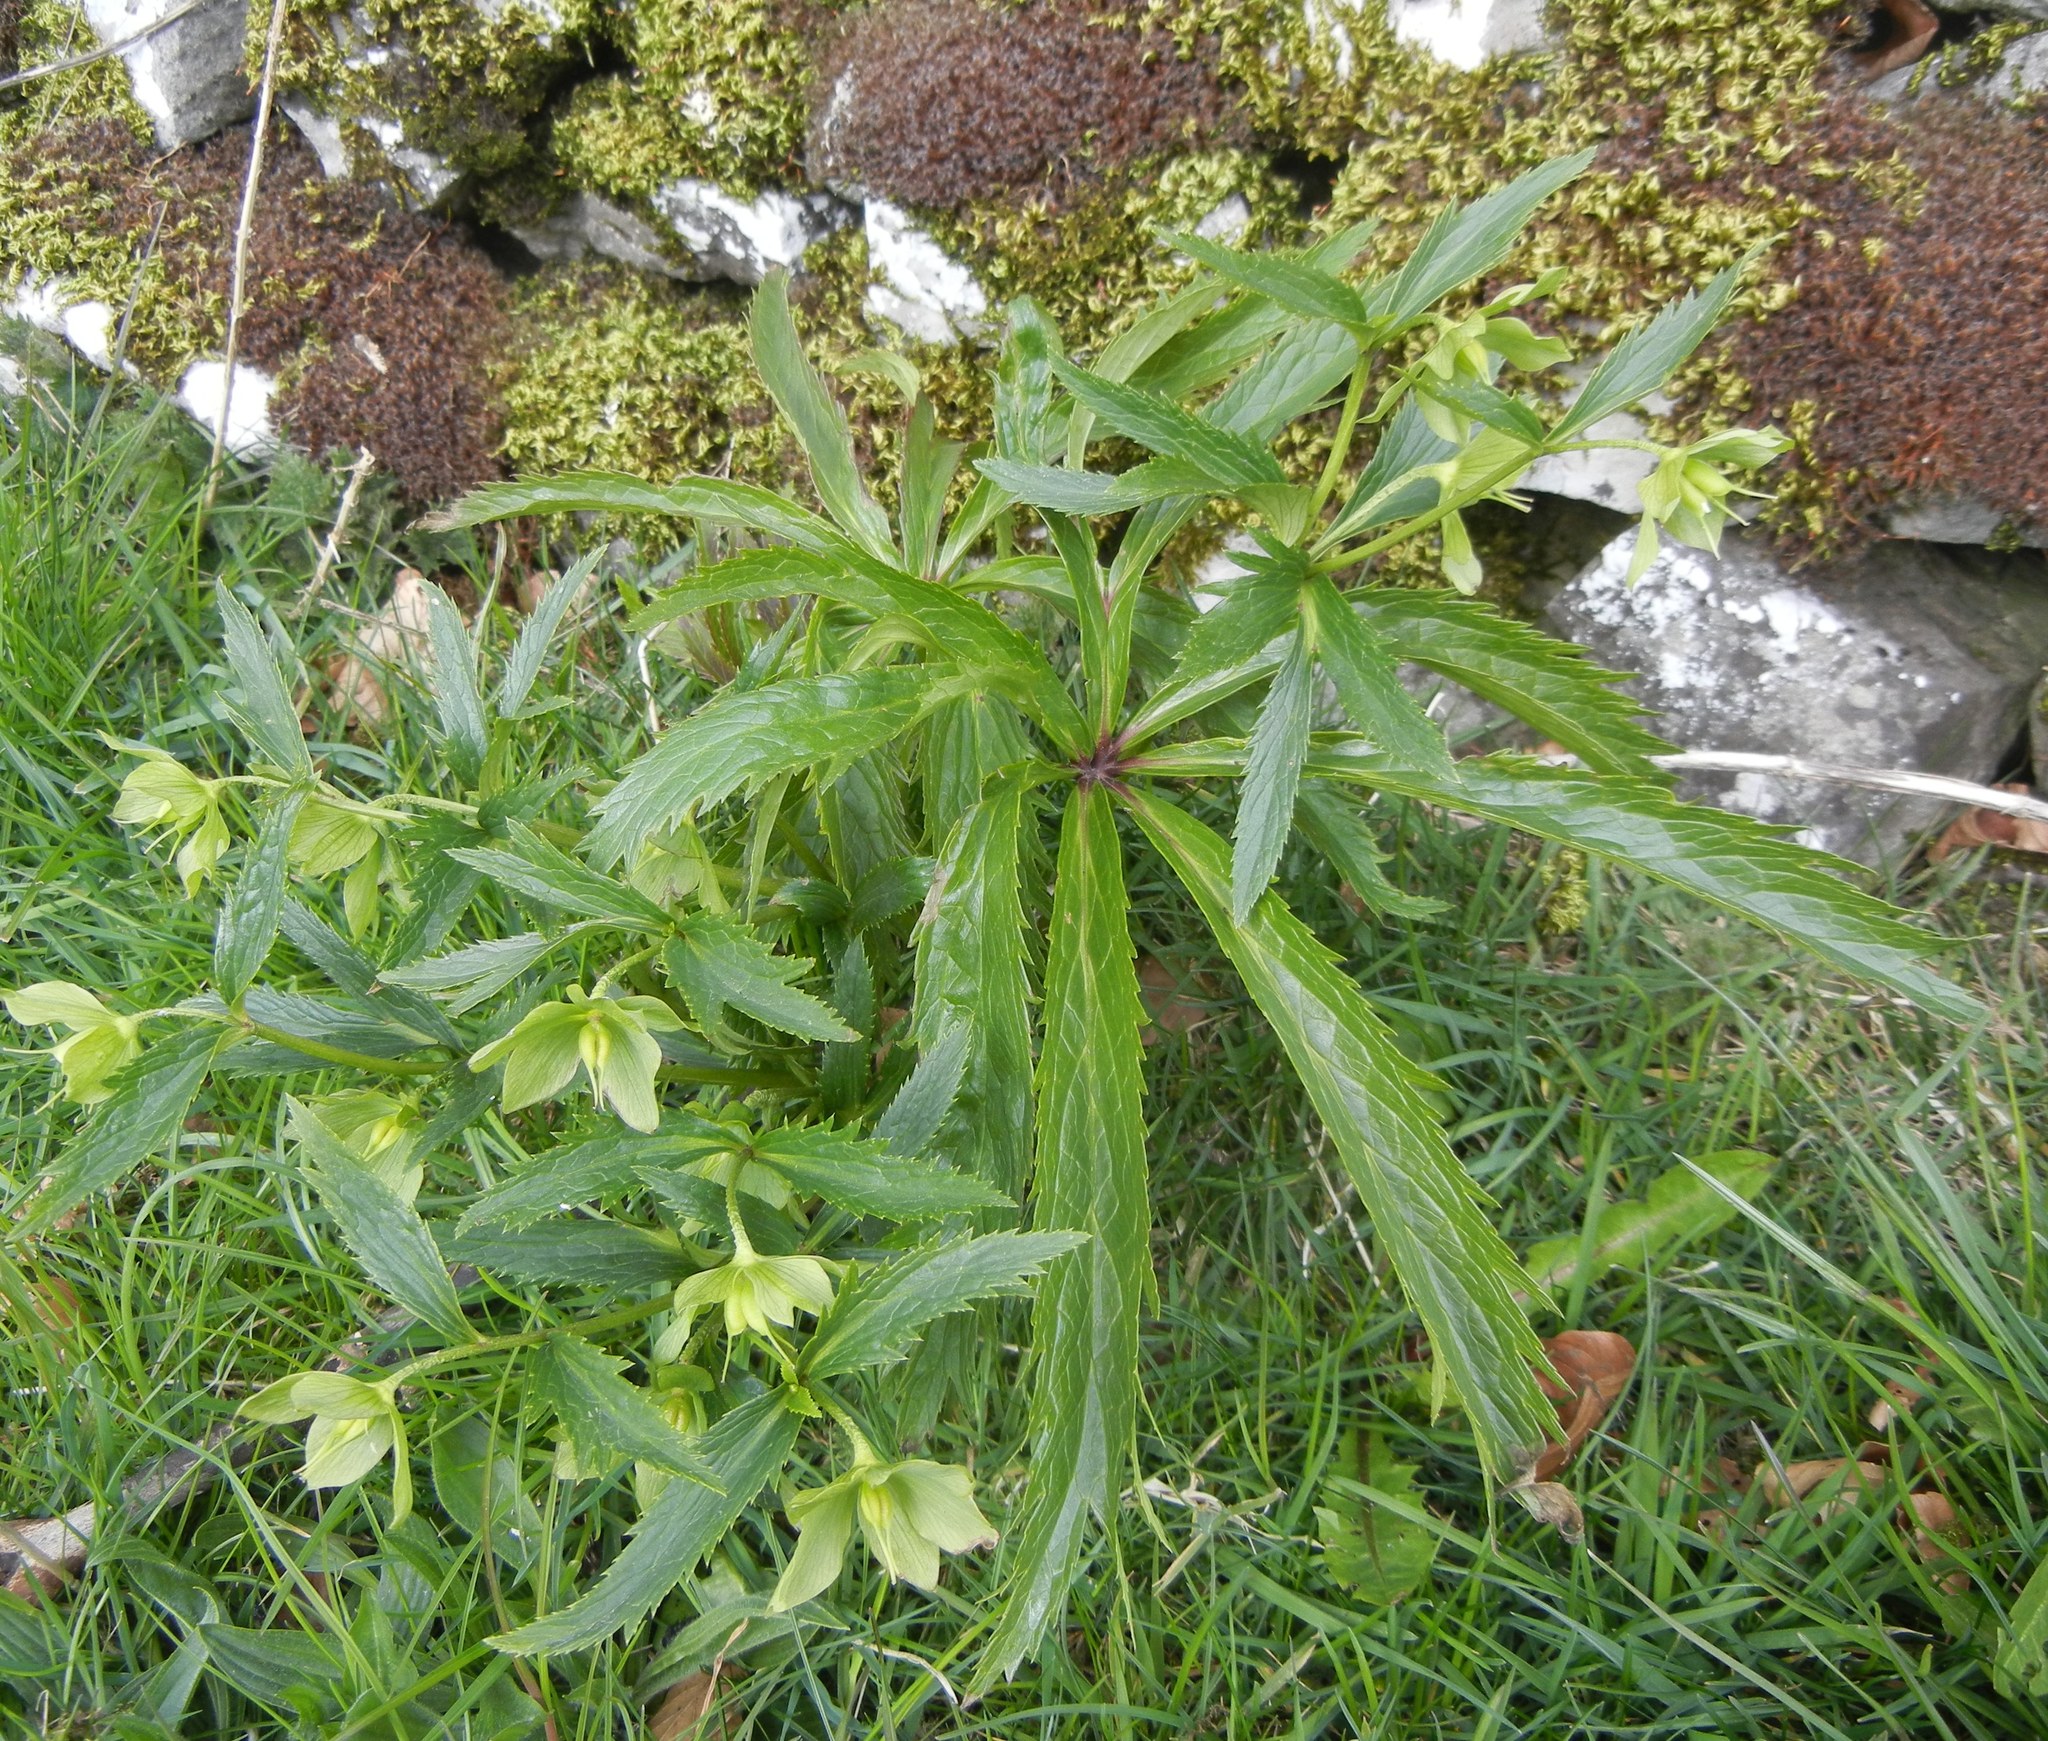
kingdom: Plantae
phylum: Tracheophyta
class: Magnoliopsida
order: Ranunculales
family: Ranunculaceae
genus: Helleborus
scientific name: Helleborus viridis
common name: Green hellebore
